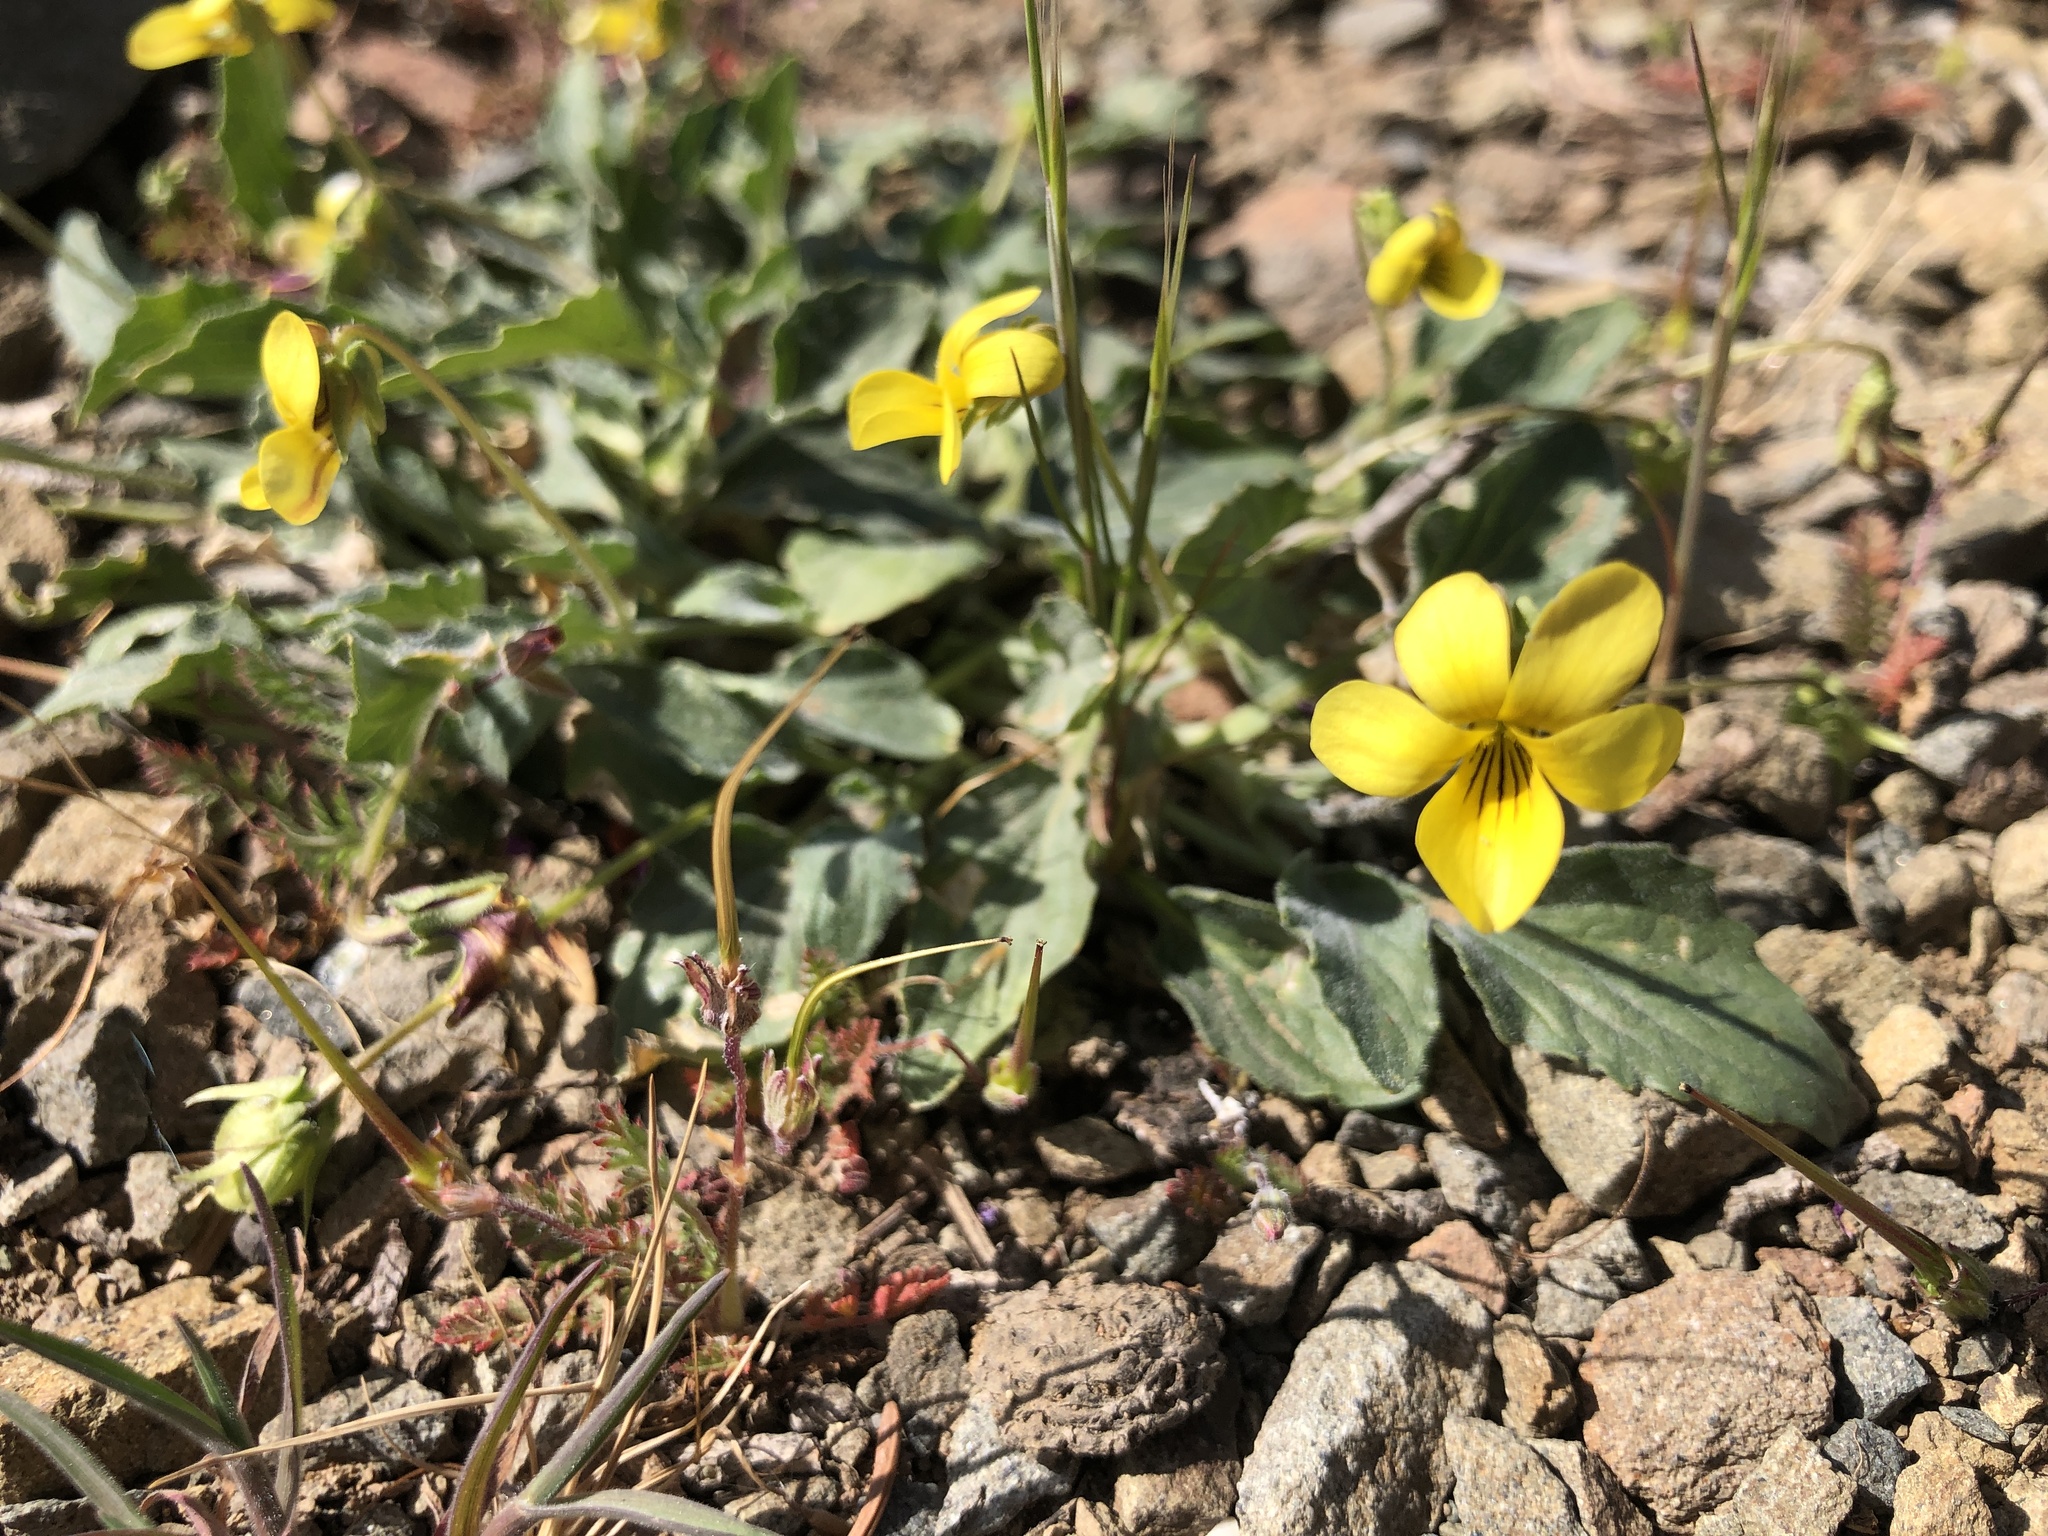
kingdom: Plantae
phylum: Tracheophyta
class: Magnoliopsida
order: Malpighiales
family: Violaceae
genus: Viola
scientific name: Viola purpurea
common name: Pine violet
